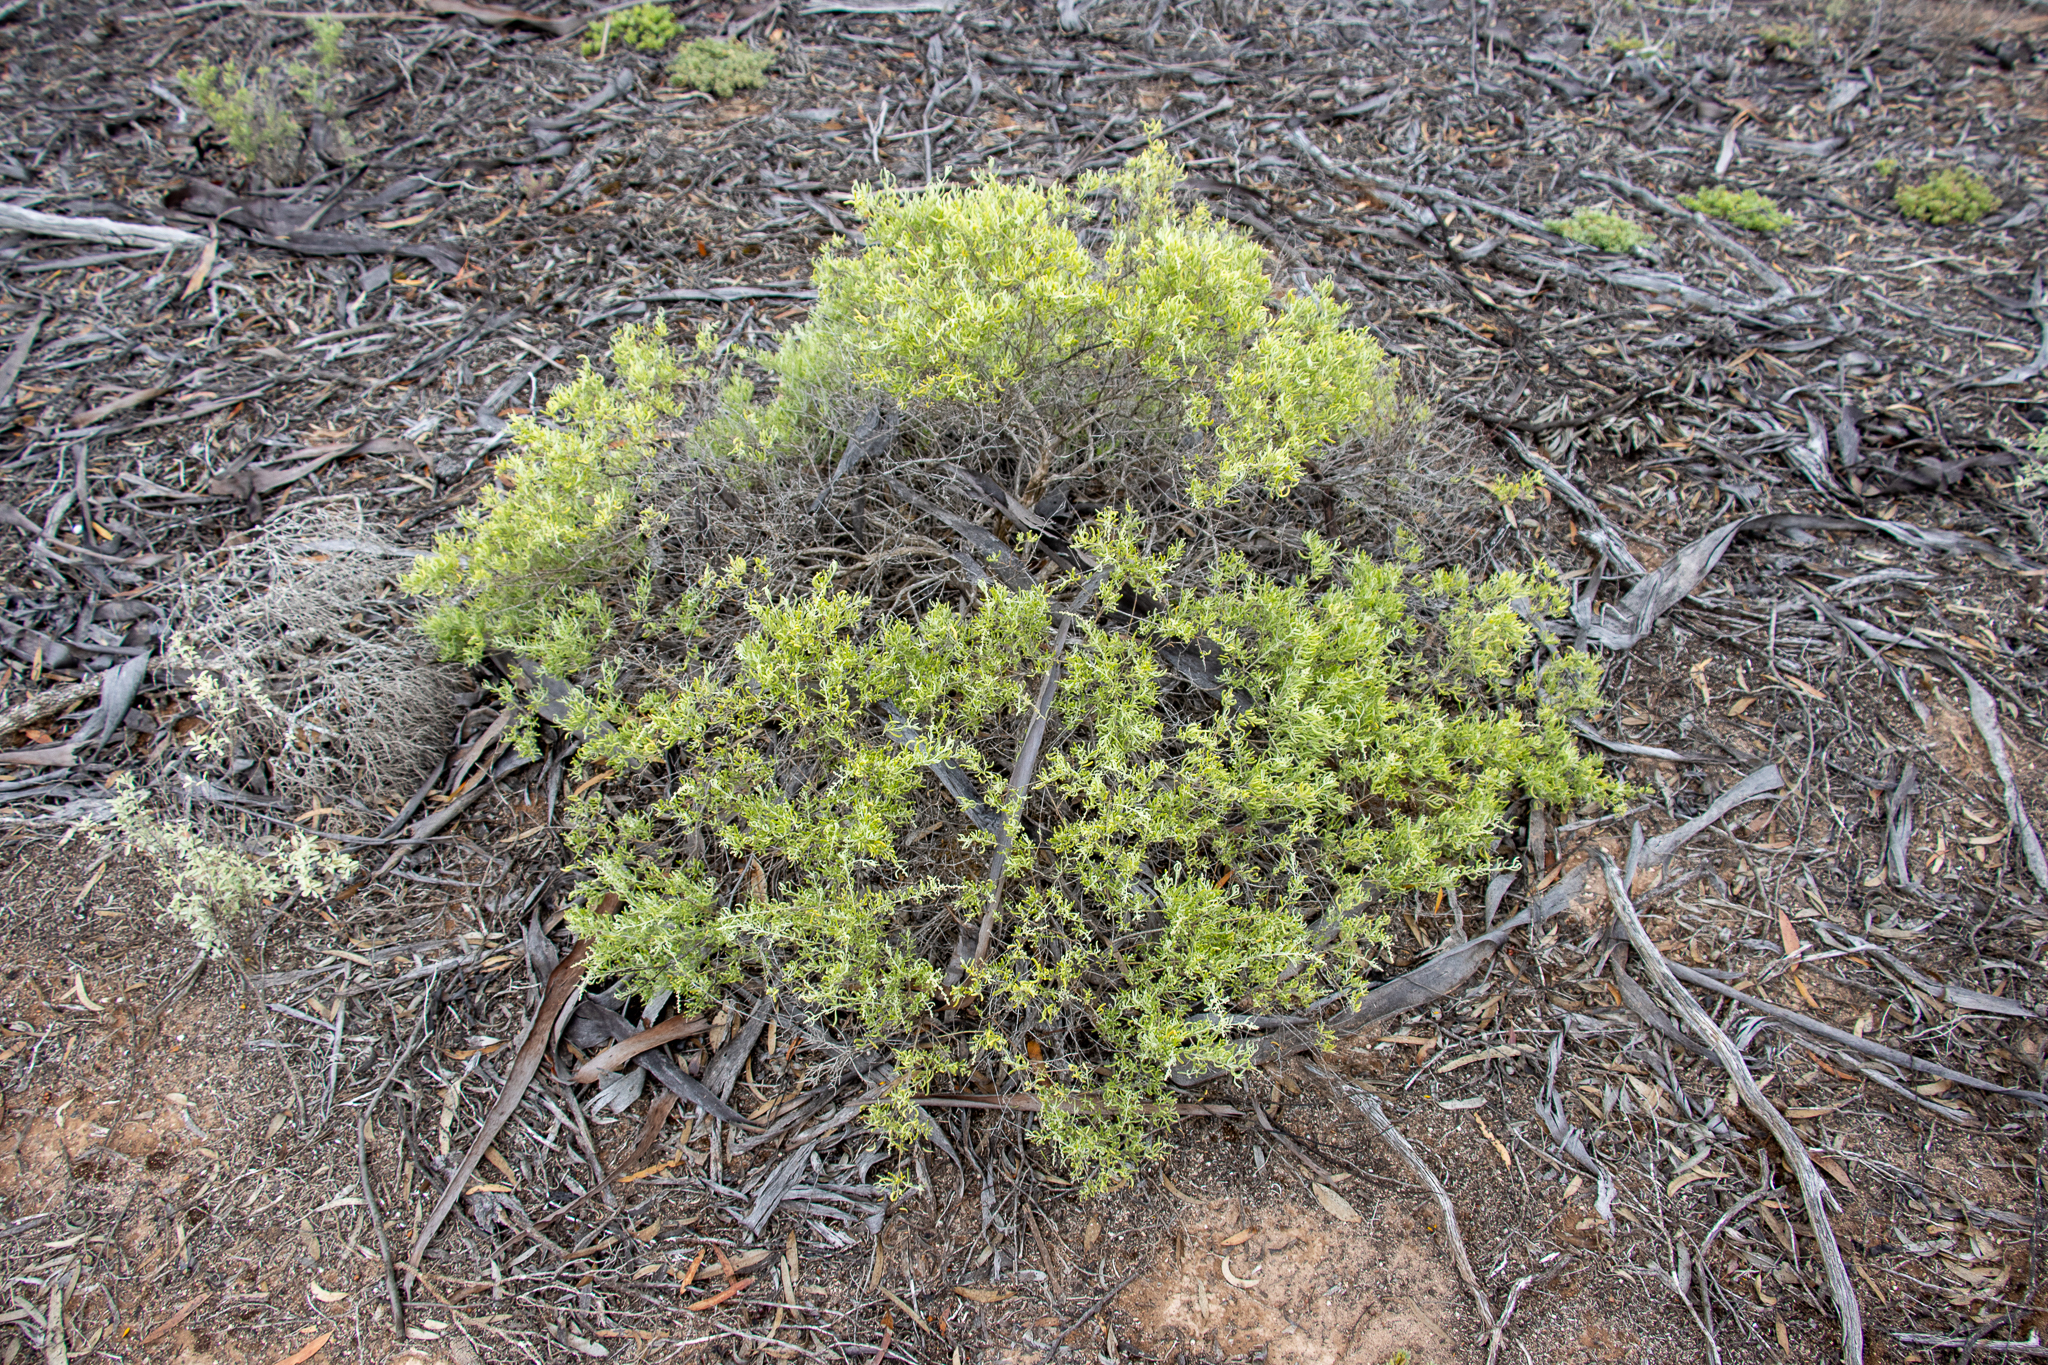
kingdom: Plantae
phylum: Tracheophyta
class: Magnoliopsida
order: Caryophyllales
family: Amaranthaceae
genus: Chenopodium
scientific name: Chenopodium wilsonii
